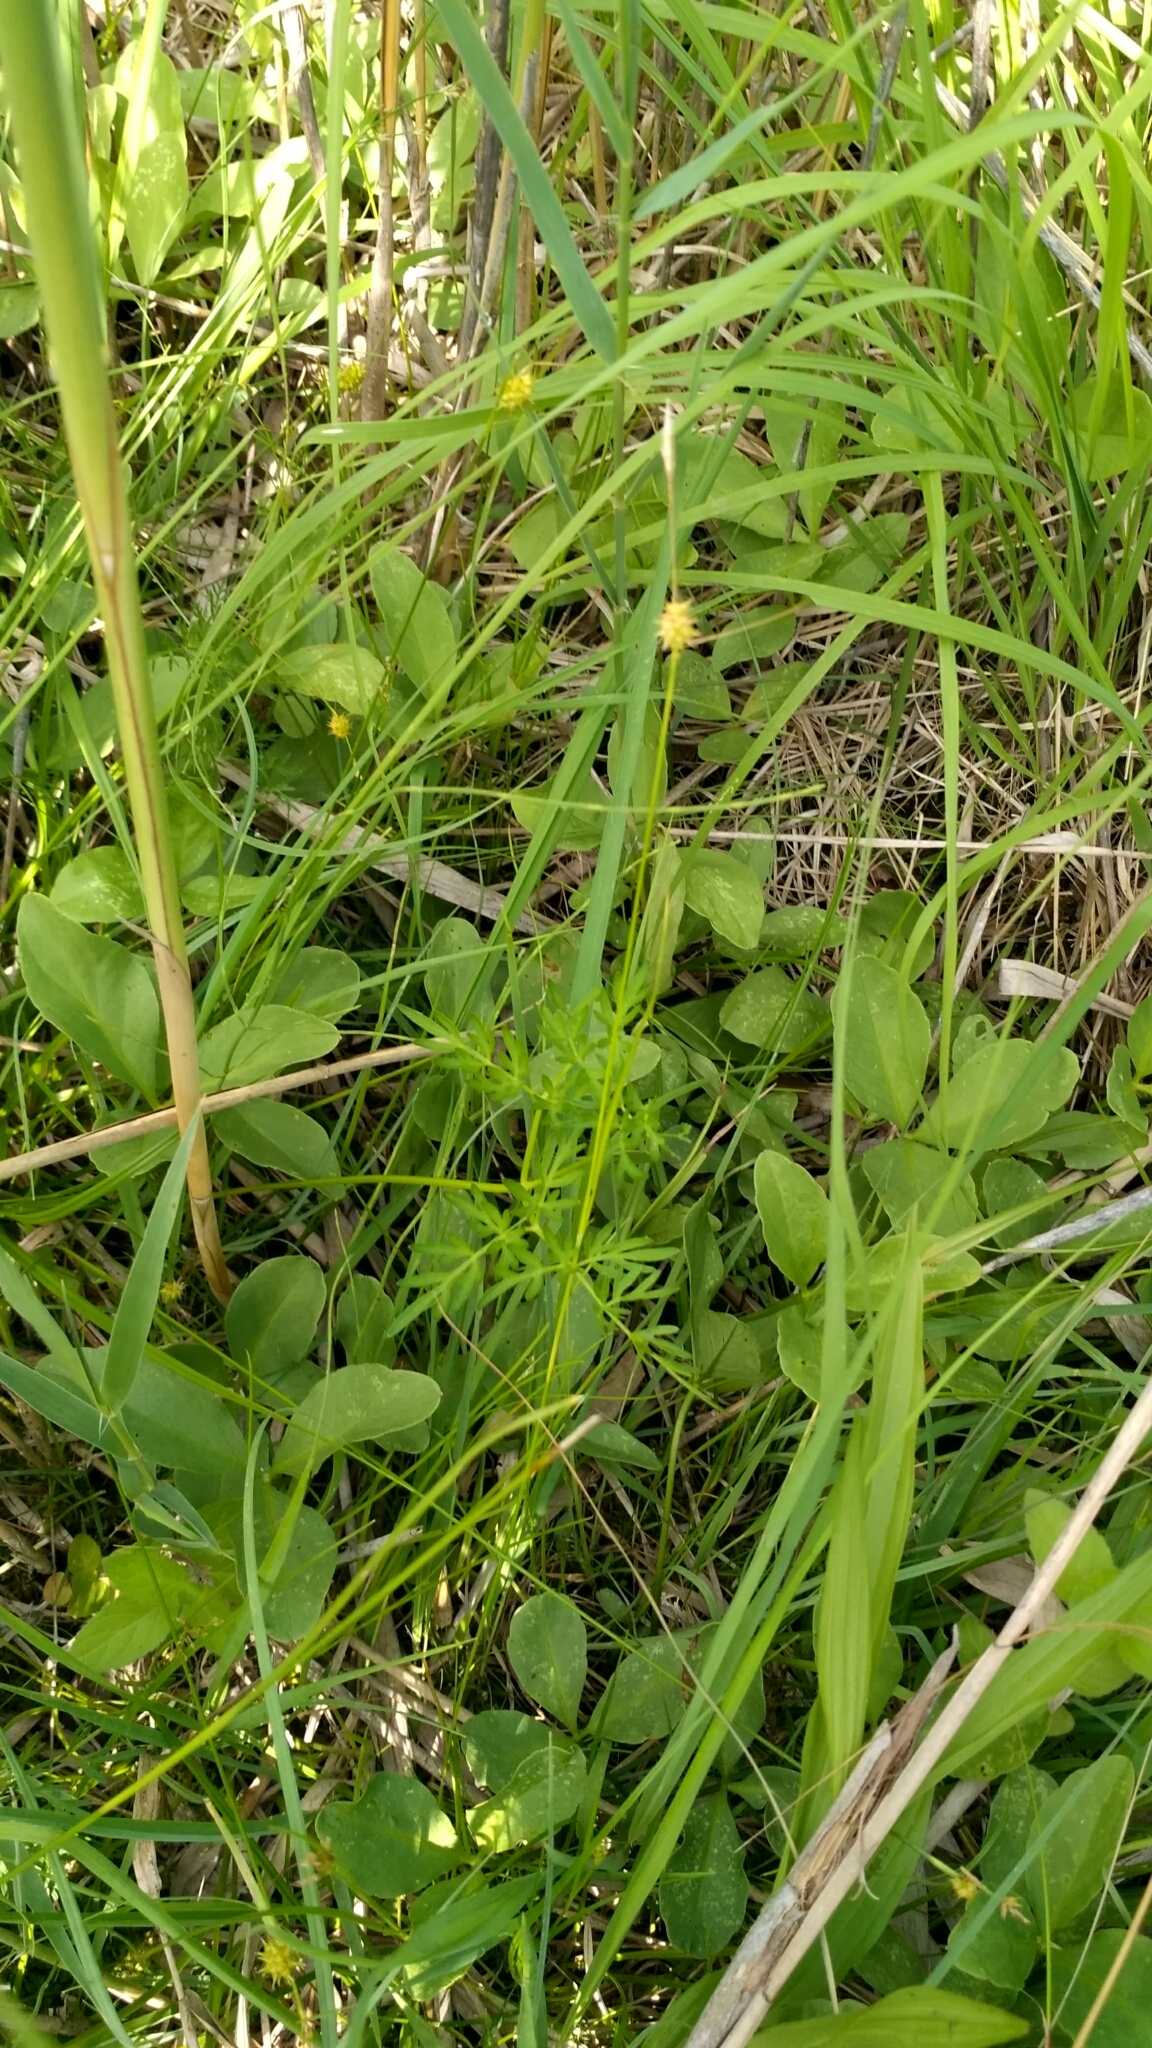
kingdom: Plantae
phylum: Tracheophyta
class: Liliopsida
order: Poales
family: Cyperaceae
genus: Carex
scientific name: Carex lepidocarpa
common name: Long-stalked yellow-sedge
